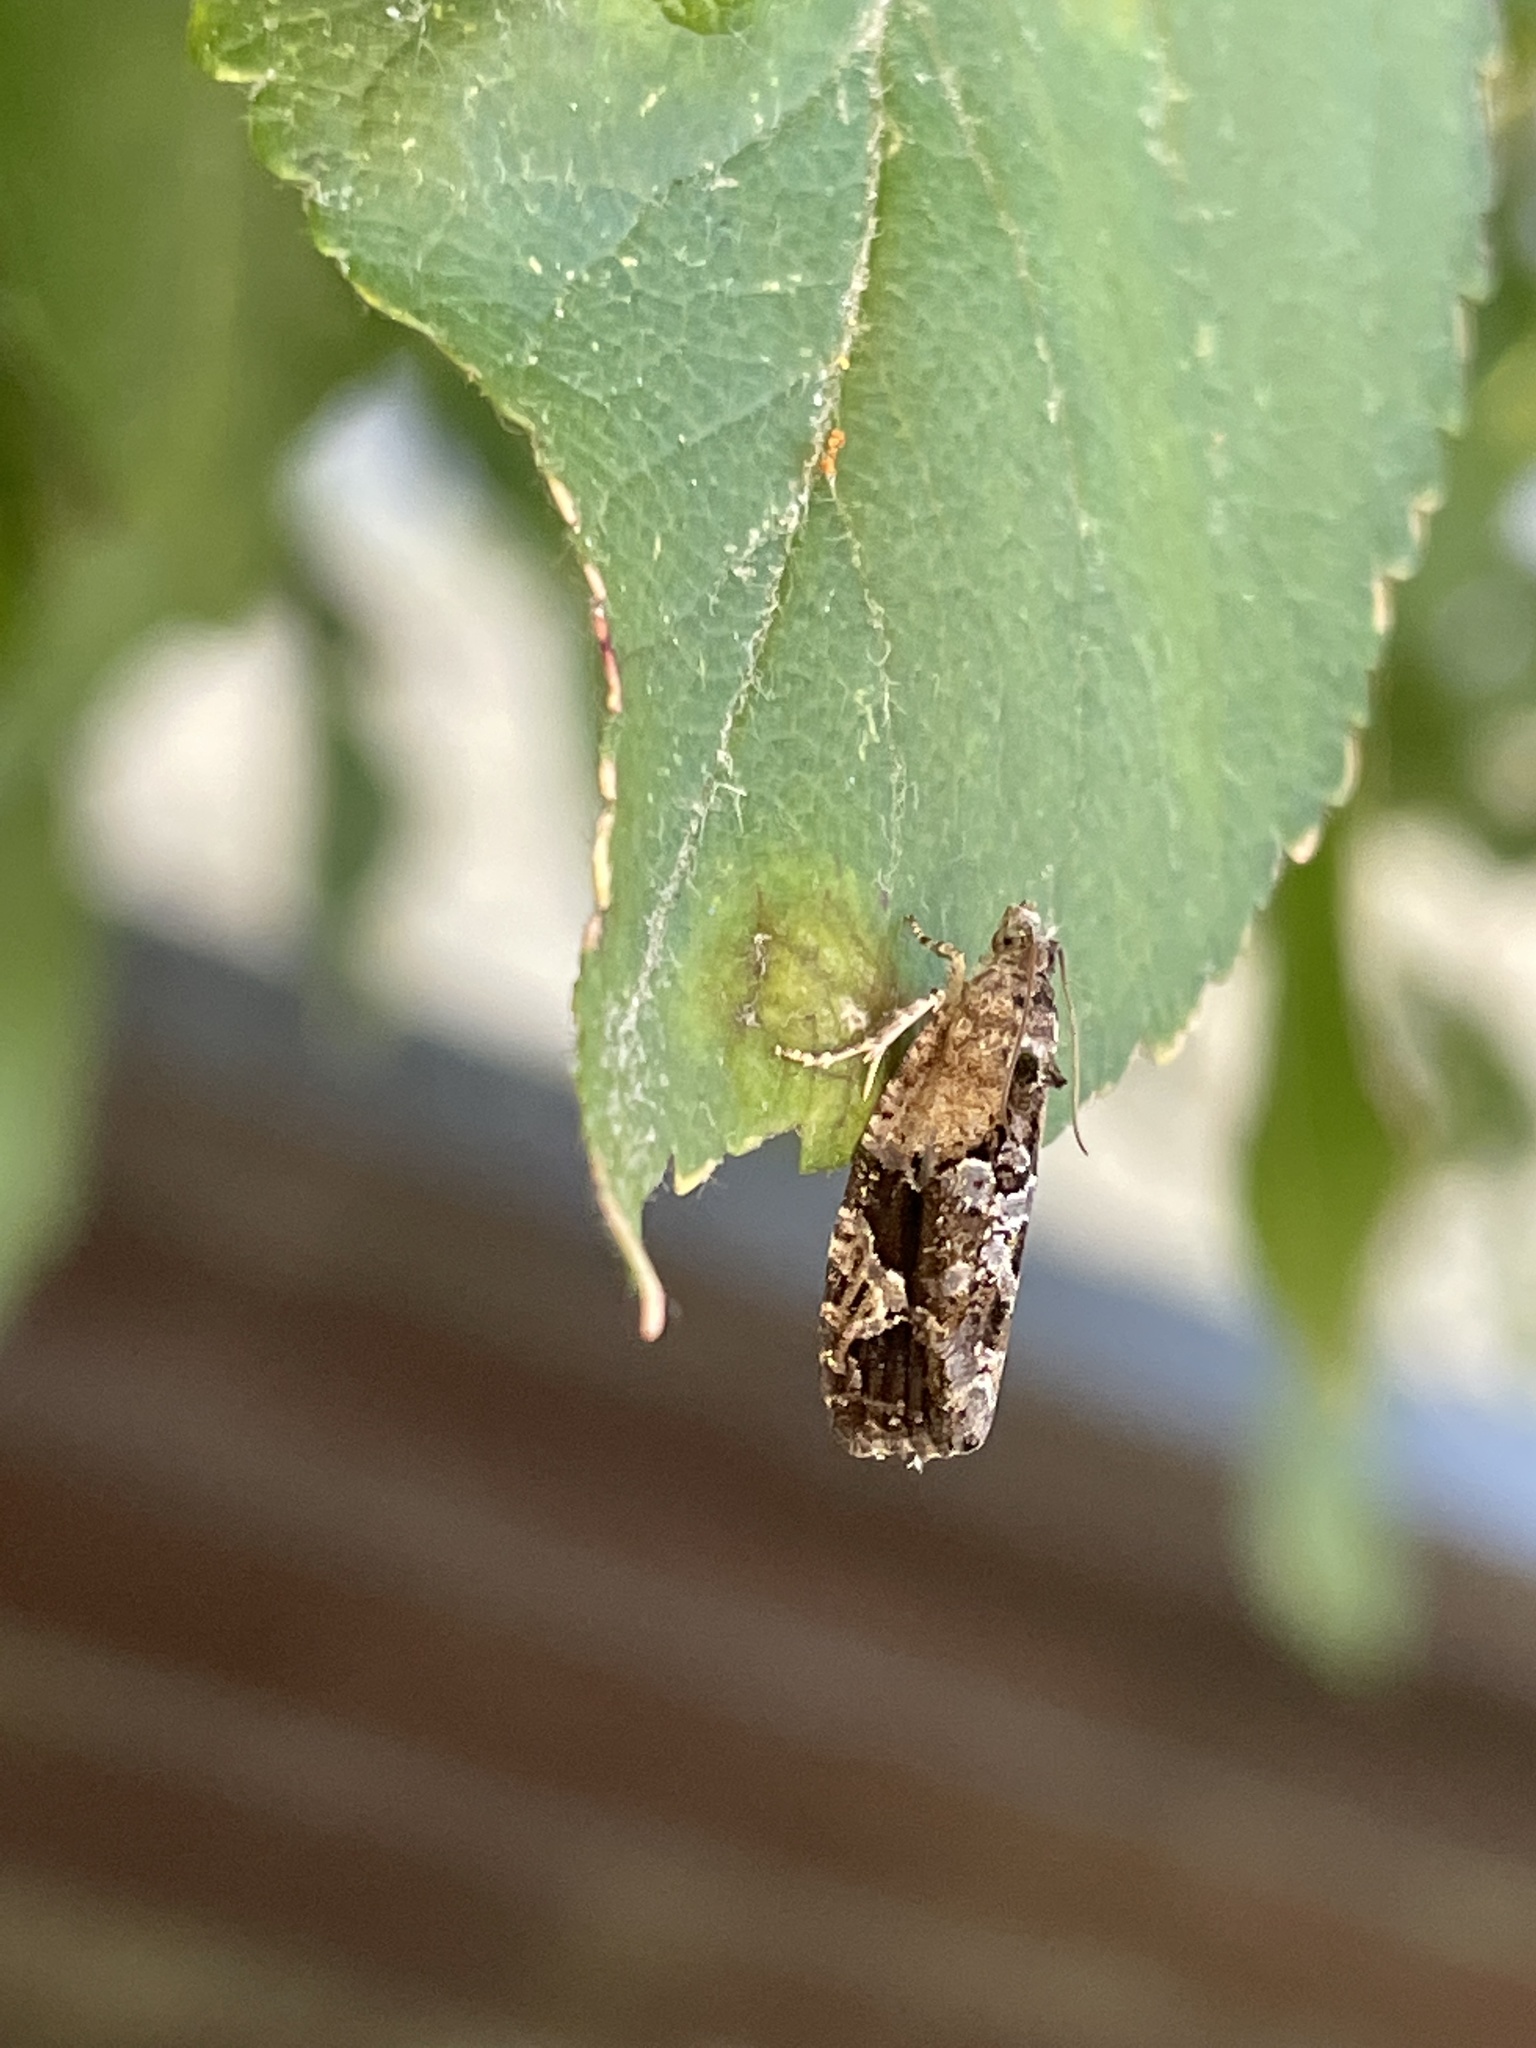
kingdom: Animalia
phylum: Arthropoda
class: Insecta
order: Lepidoptera
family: Tortricidae
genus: Eudemis
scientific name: Eudemis porphyrana
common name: Apple marble
